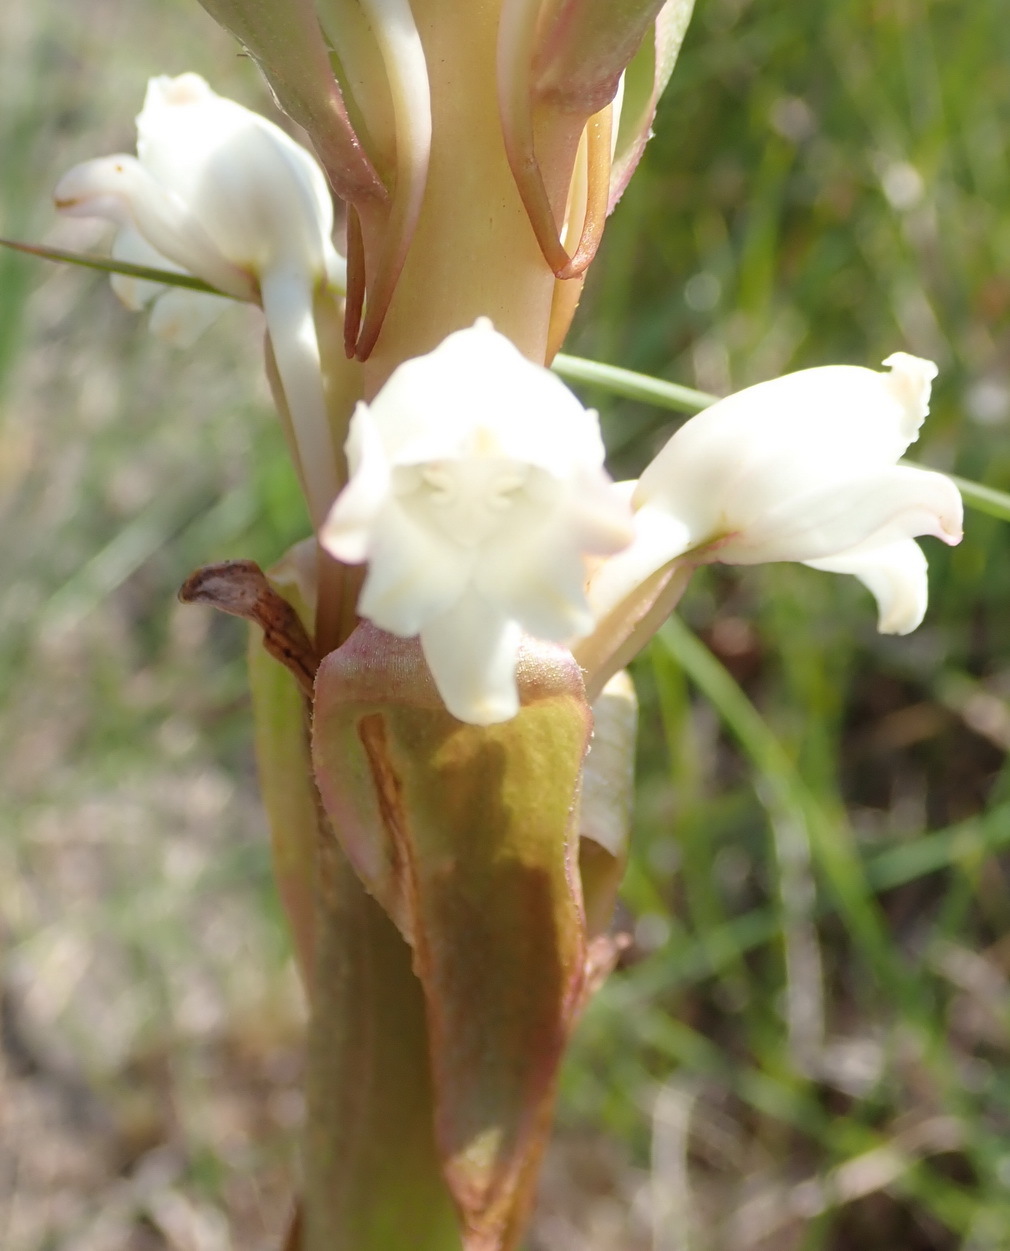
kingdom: Plantae
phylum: Tracheophyta
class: Liliopsida
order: Asparagales
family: Orchidaceae
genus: Satyrium
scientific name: Satyrium acuminatum
